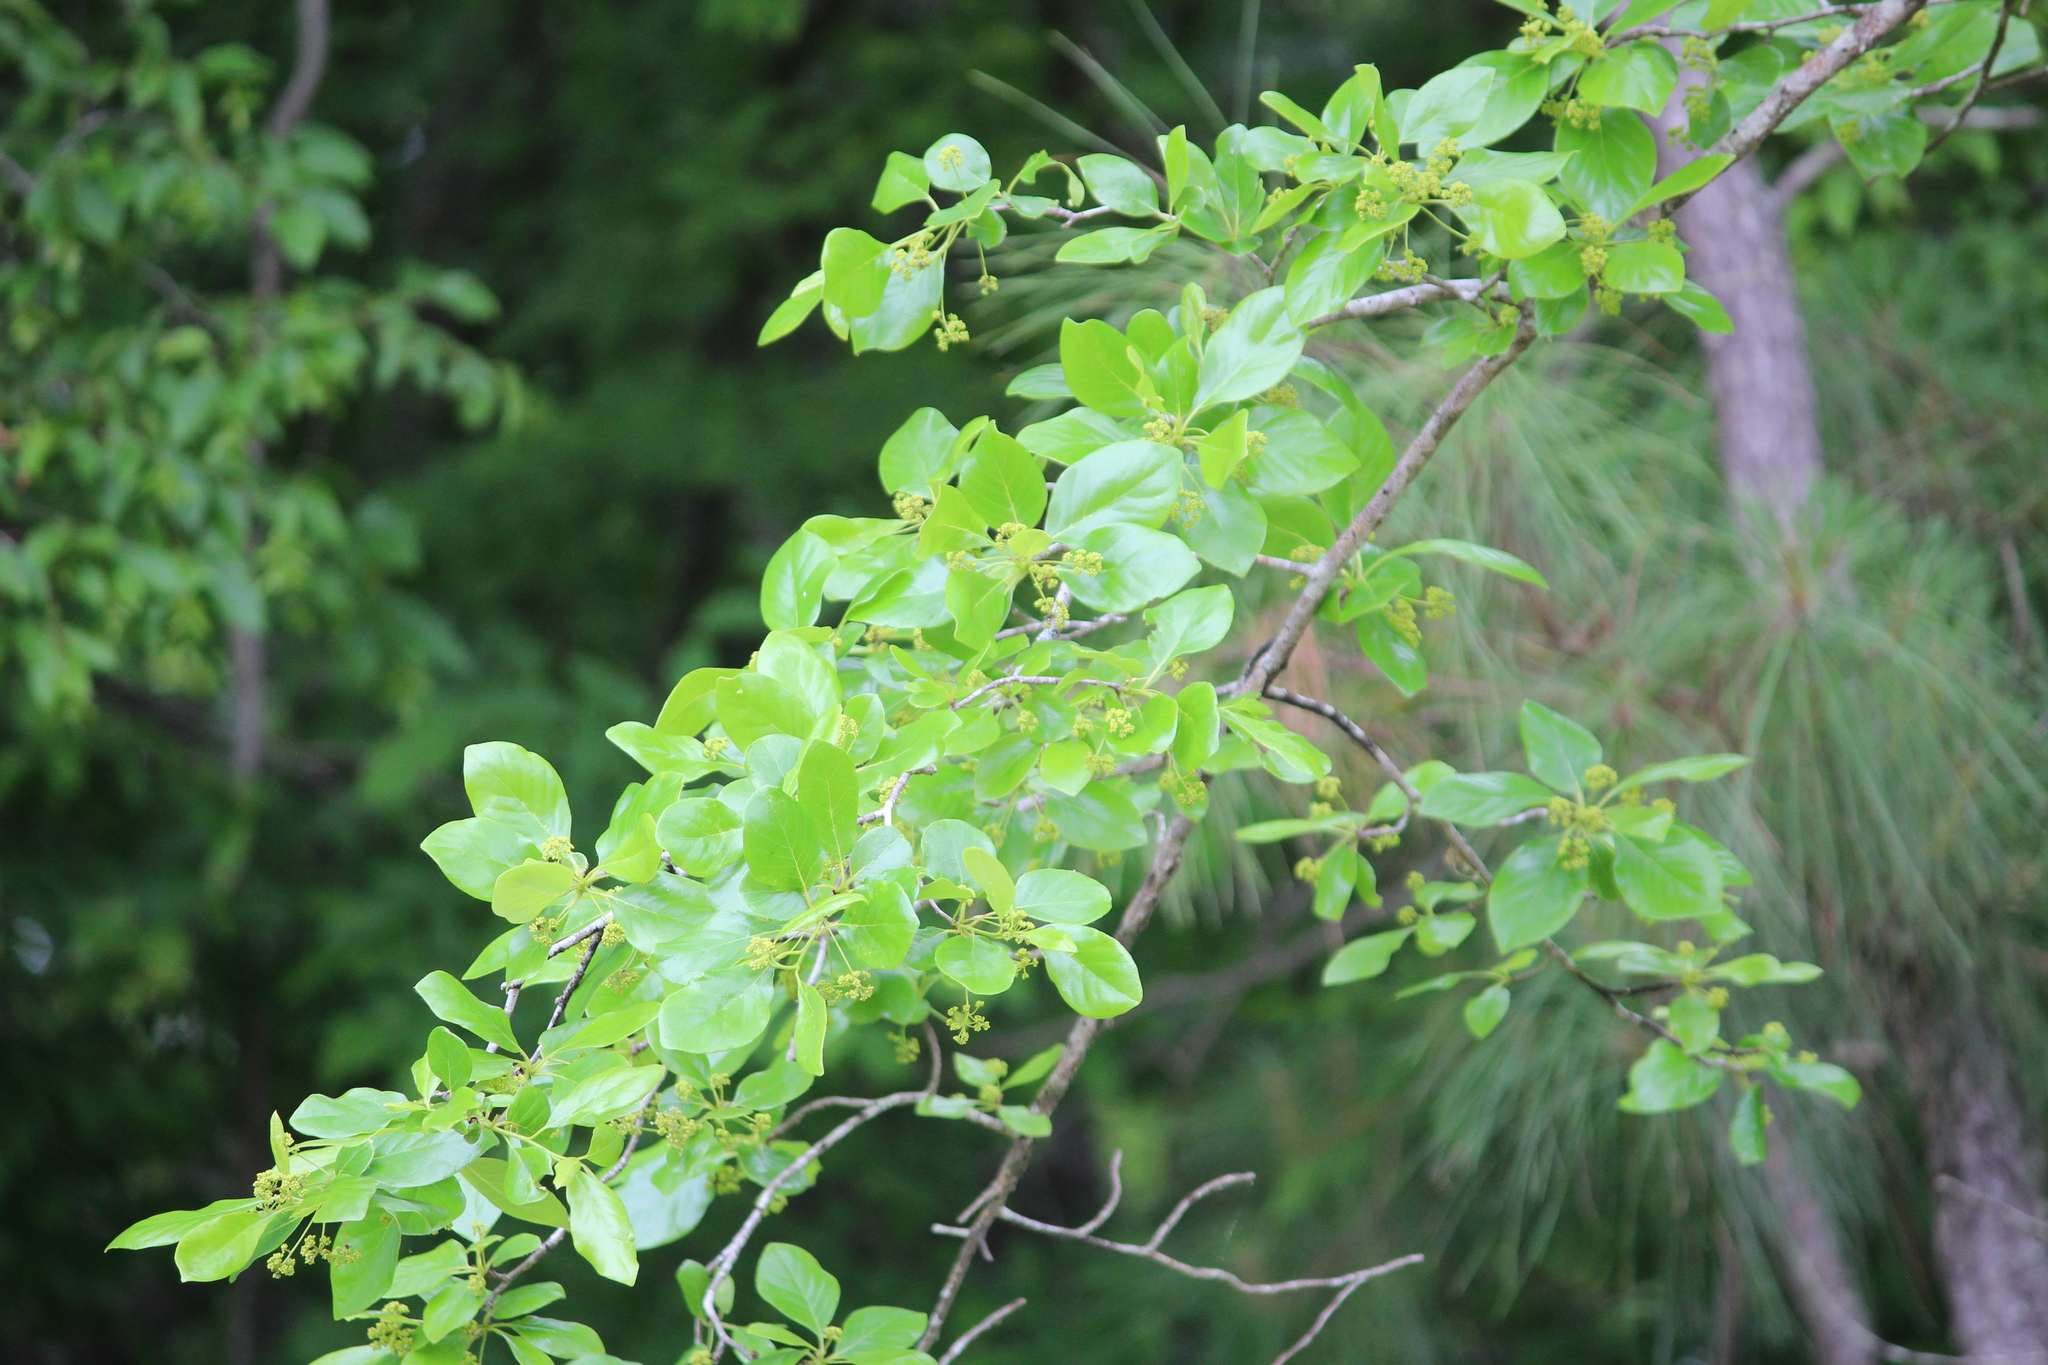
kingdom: Plantae
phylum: Tracheophyta
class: Magnoliopsida
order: Cornales
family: Nyssaceae
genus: Nyssa
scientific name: Nyssa sylvatica
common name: Black tupelo
